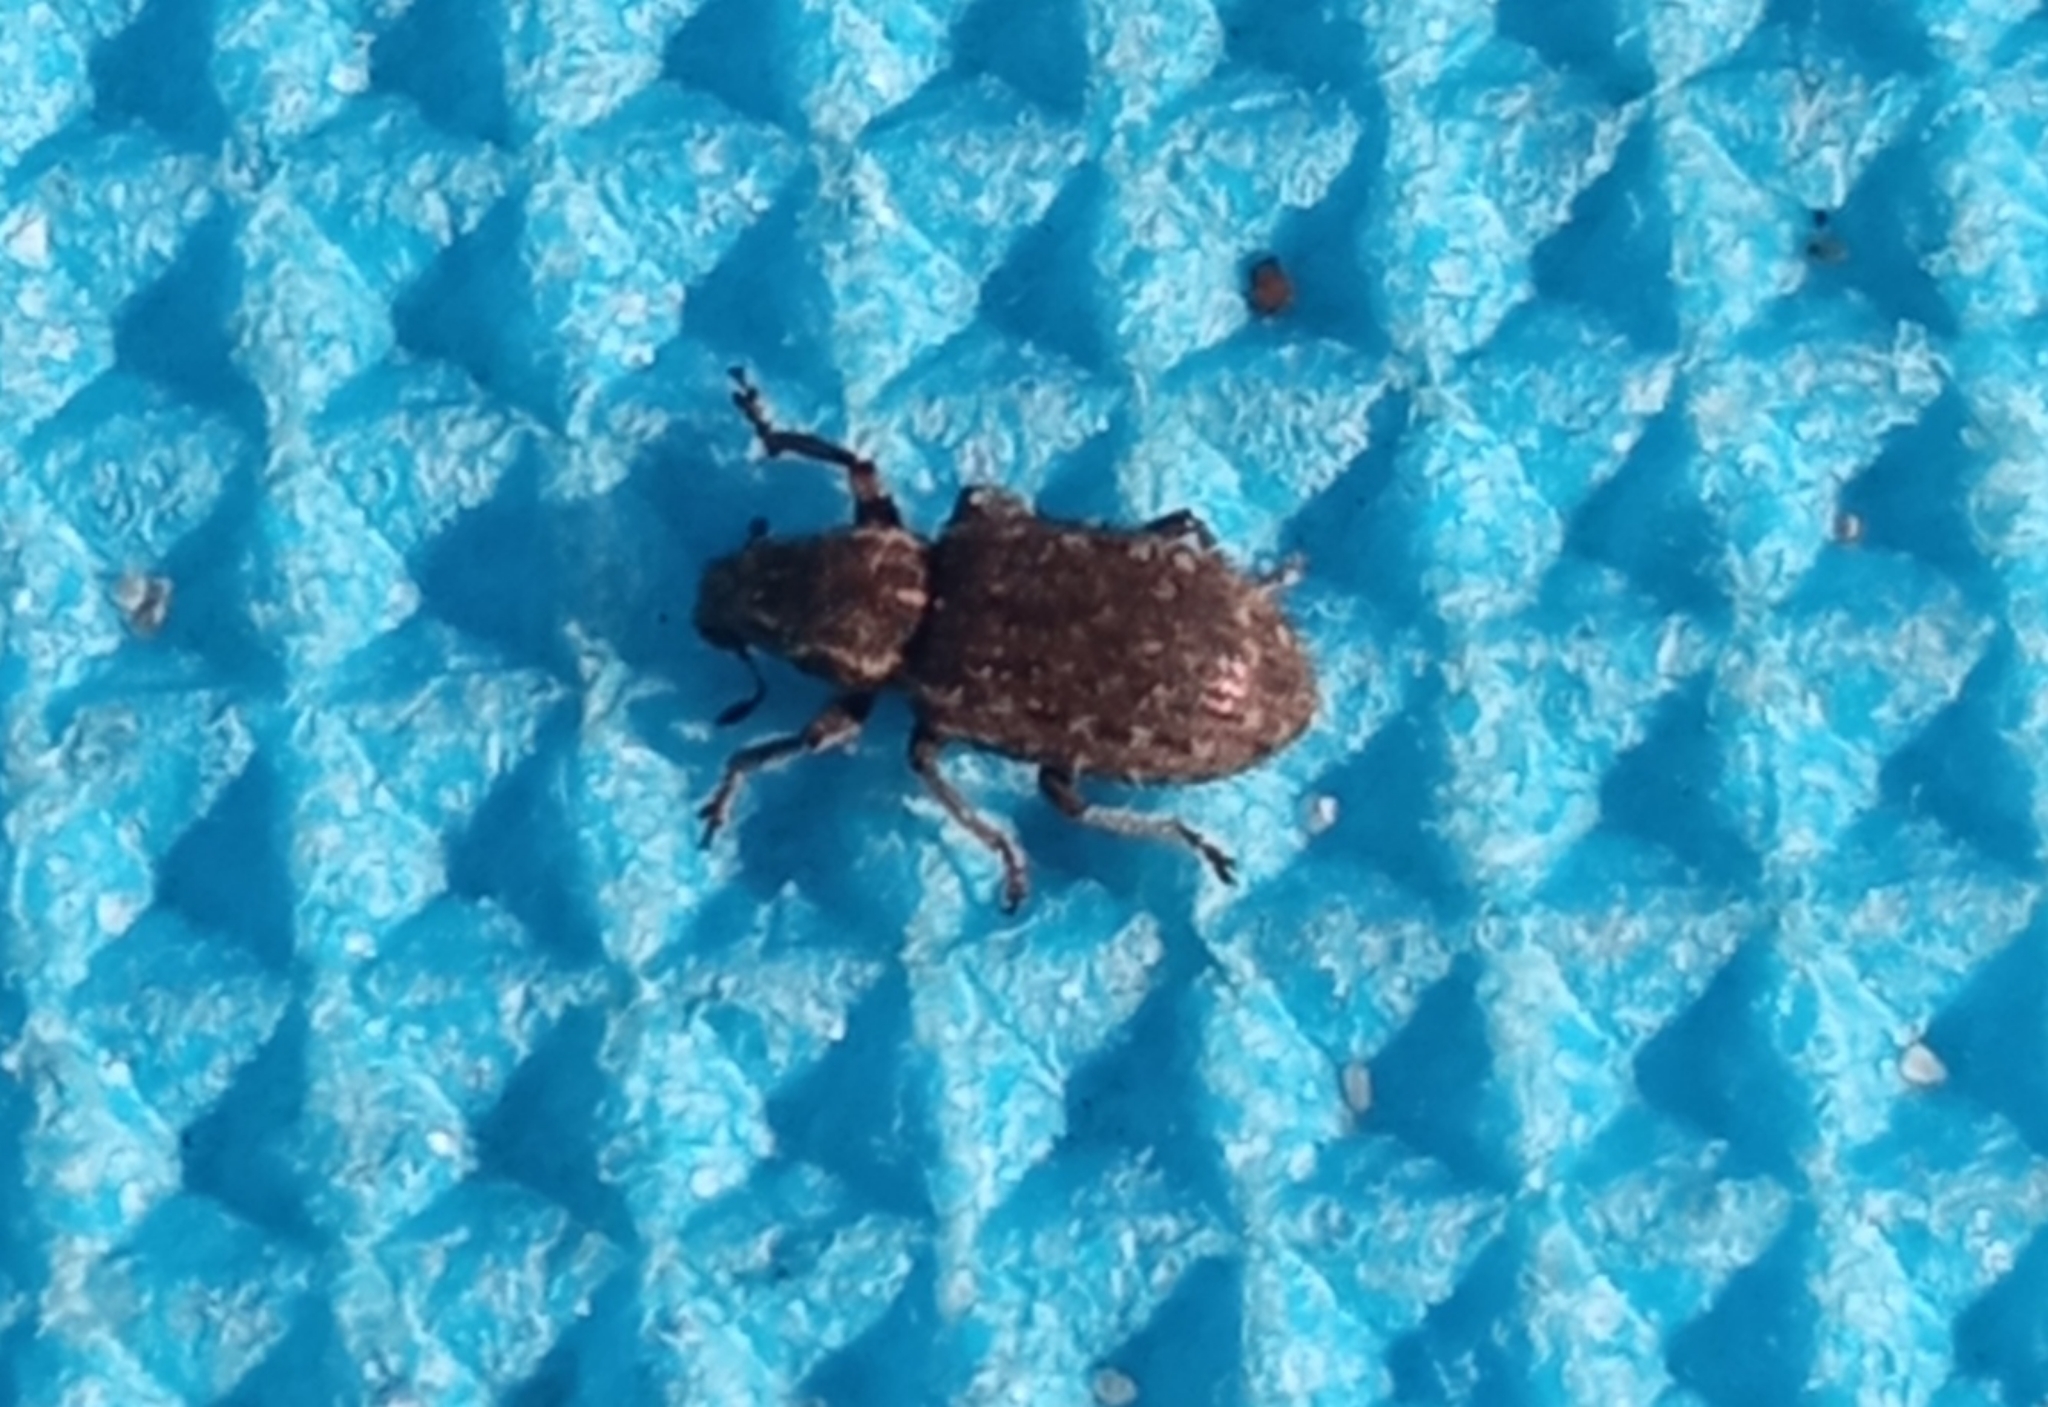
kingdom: Animalia
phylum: Arthropoda
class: Insecta
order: Coleoptera
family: Curculionidae
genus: Sitona
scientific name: Sitona hispidulus
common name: Clover weevil
